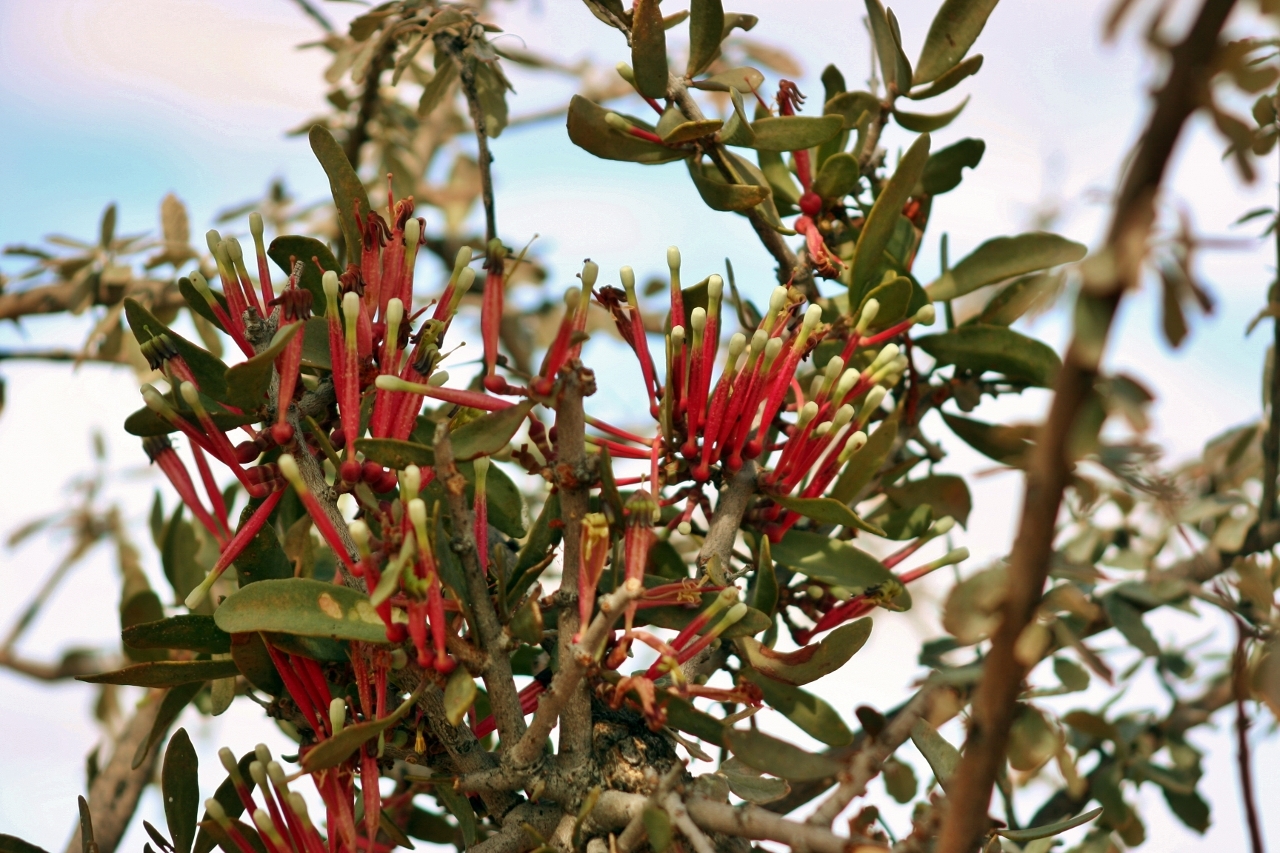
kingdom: Plantae
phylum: Tracheophyta
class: Magnoliopsida
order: Santalales
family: Loranthaceae
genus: Tapinanthus
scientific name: Tapinanthus oleifolius
